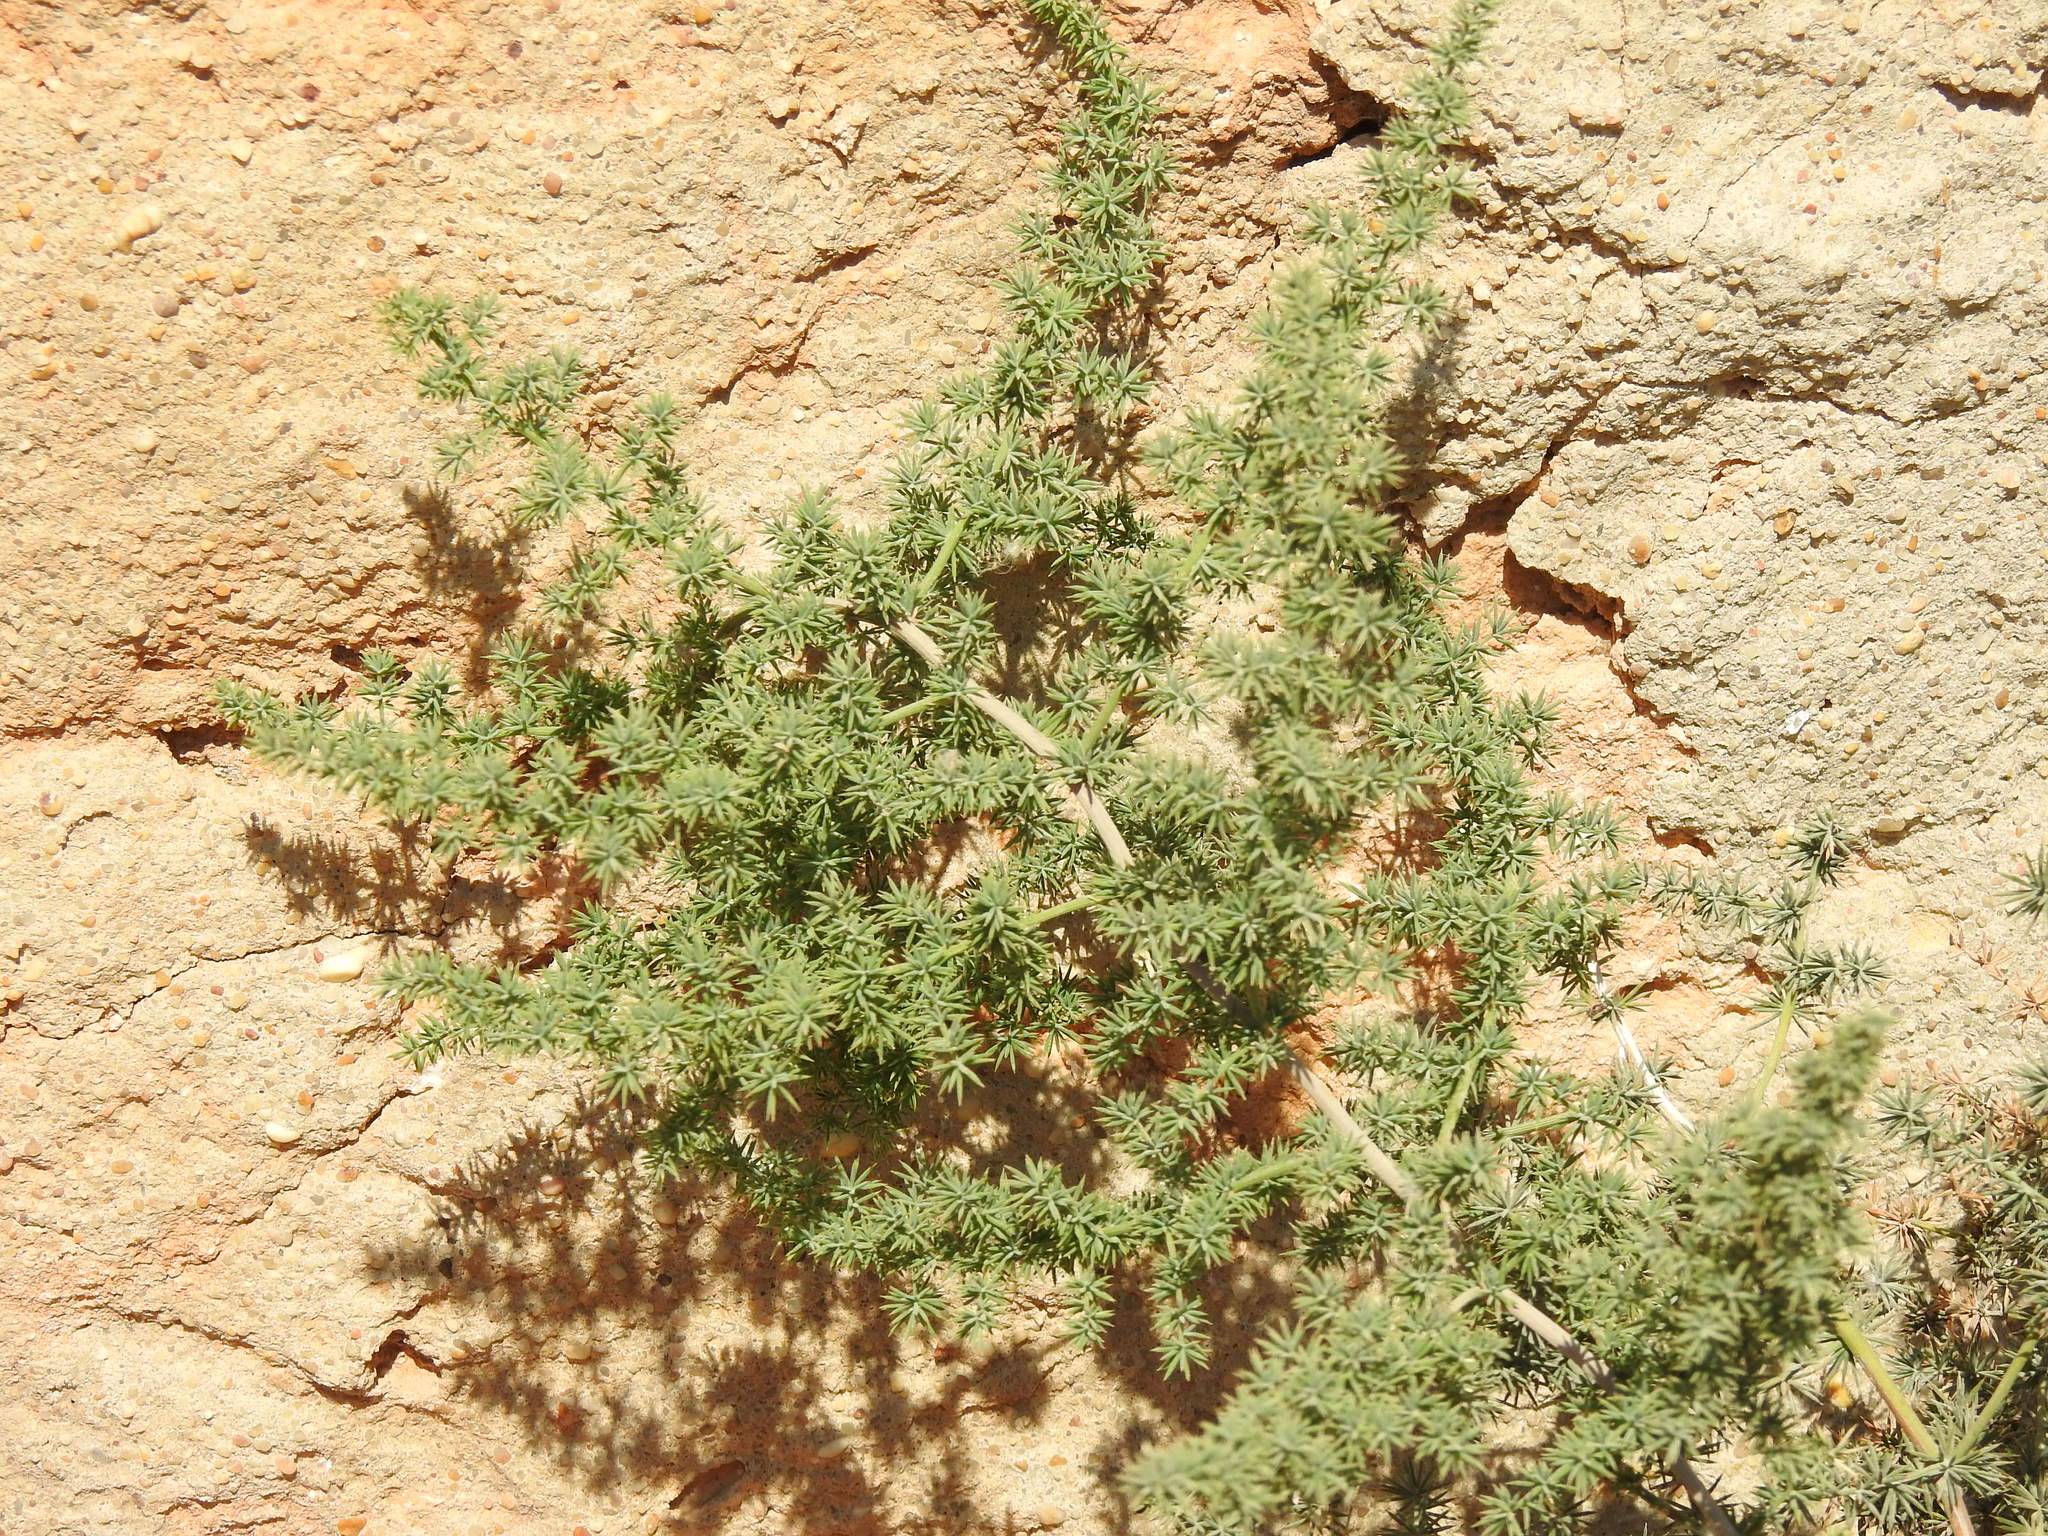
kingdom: Plantae
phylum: Tracheophyta
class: Liliopsida
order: Asparagales
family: Asparagaceae
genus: Asparagus
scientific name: Asparagus acutifolius
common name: Wild asparagus
